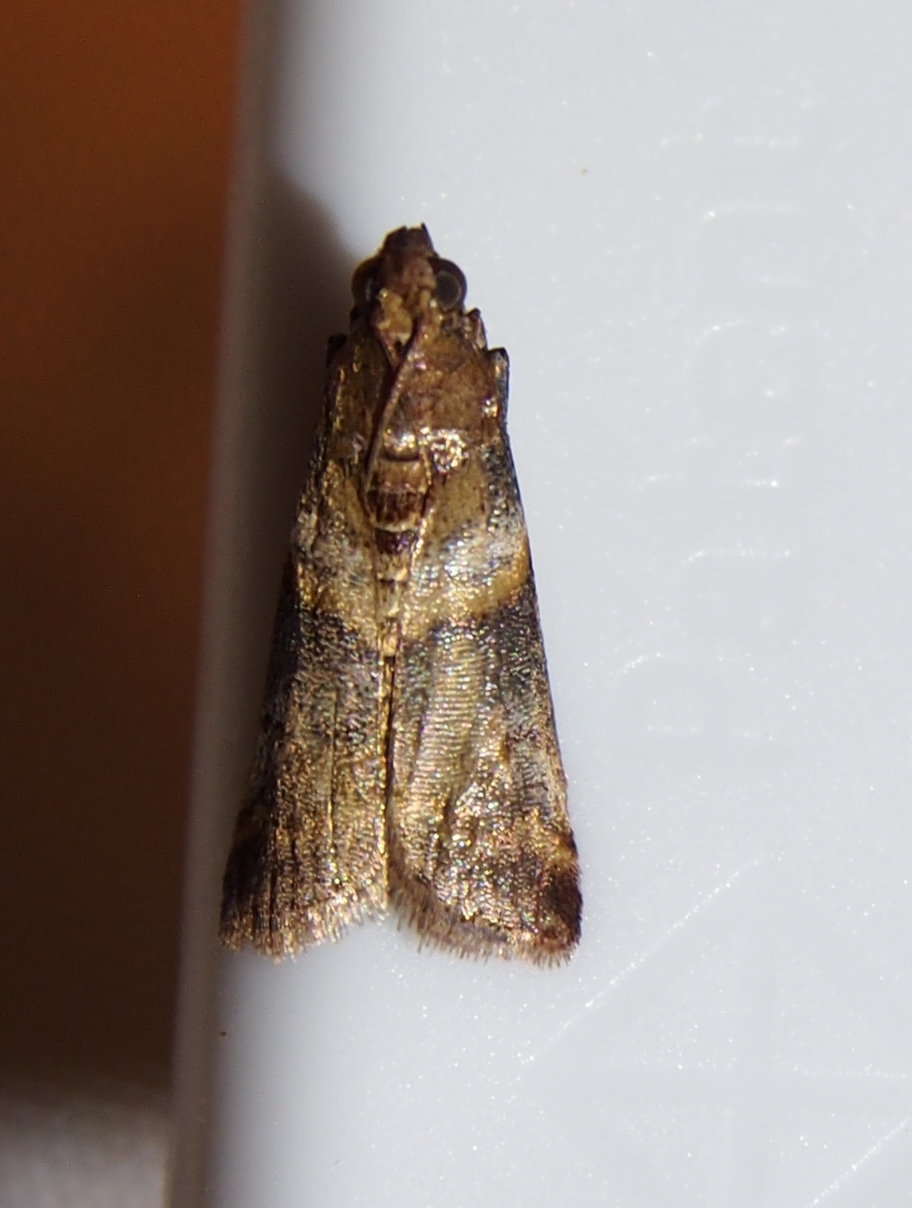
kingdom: Animalia
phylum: Arthropoda
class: Insecta
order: Lepidoptera
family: Pyralidae
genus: Davara
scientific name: Davara caricae
